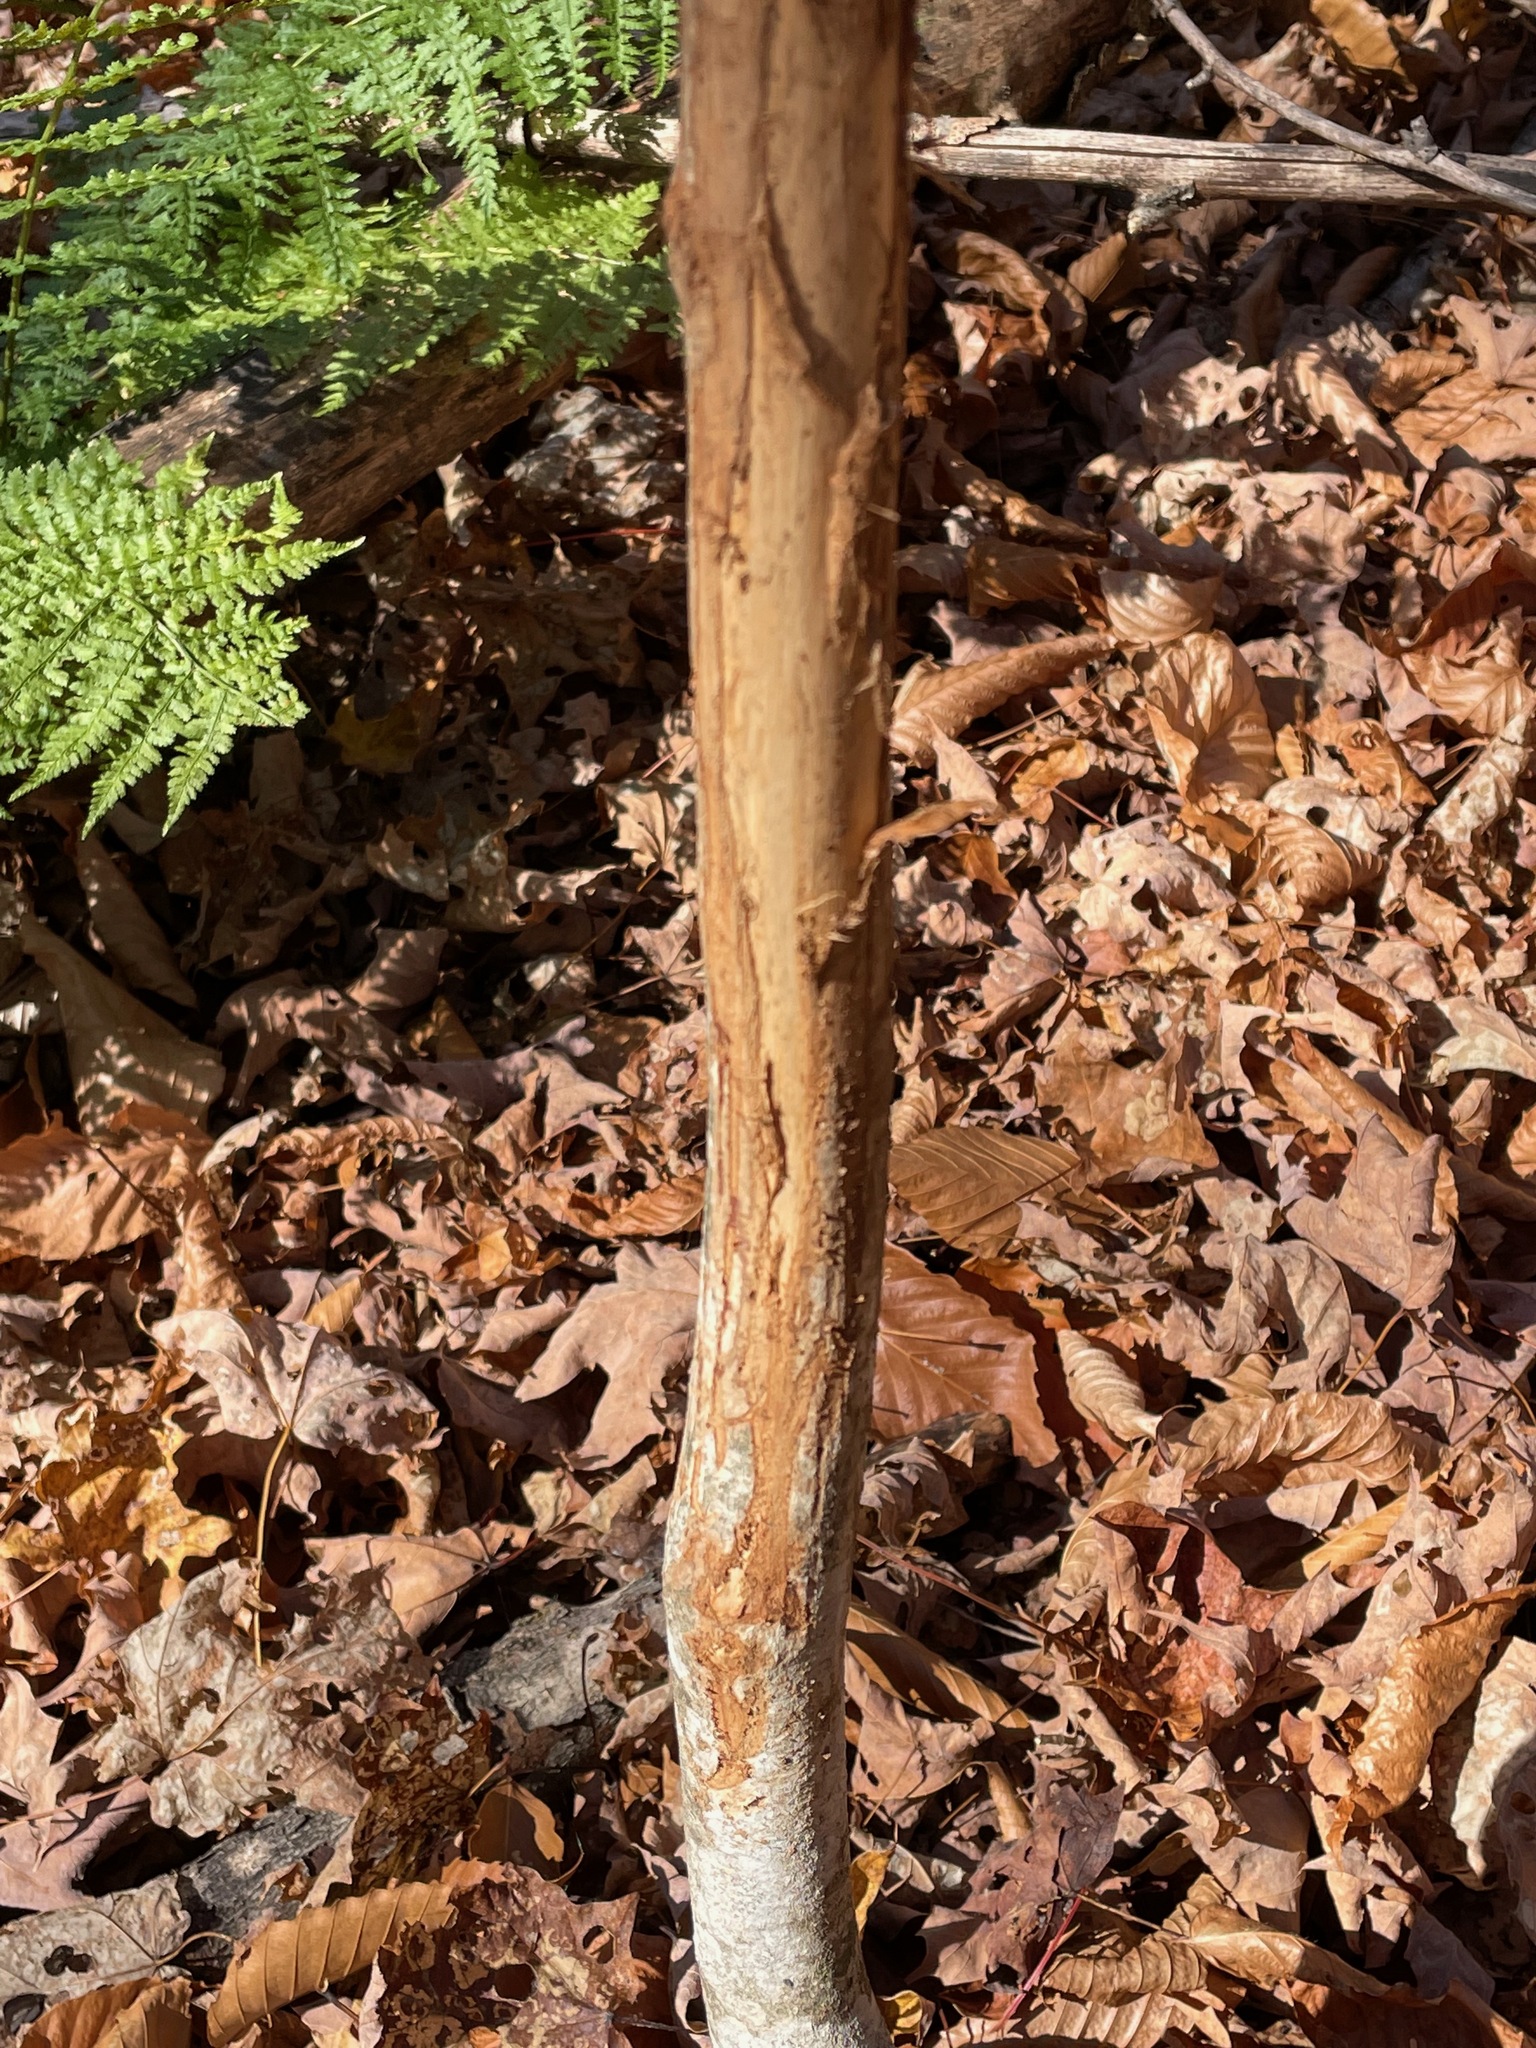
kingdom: Animalia
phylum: Chordata
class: Mammalia
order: Artiodactyla
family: Cervidae
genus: Odocoileus
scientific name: Odocoileus virginianus
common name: White-tailed deer
